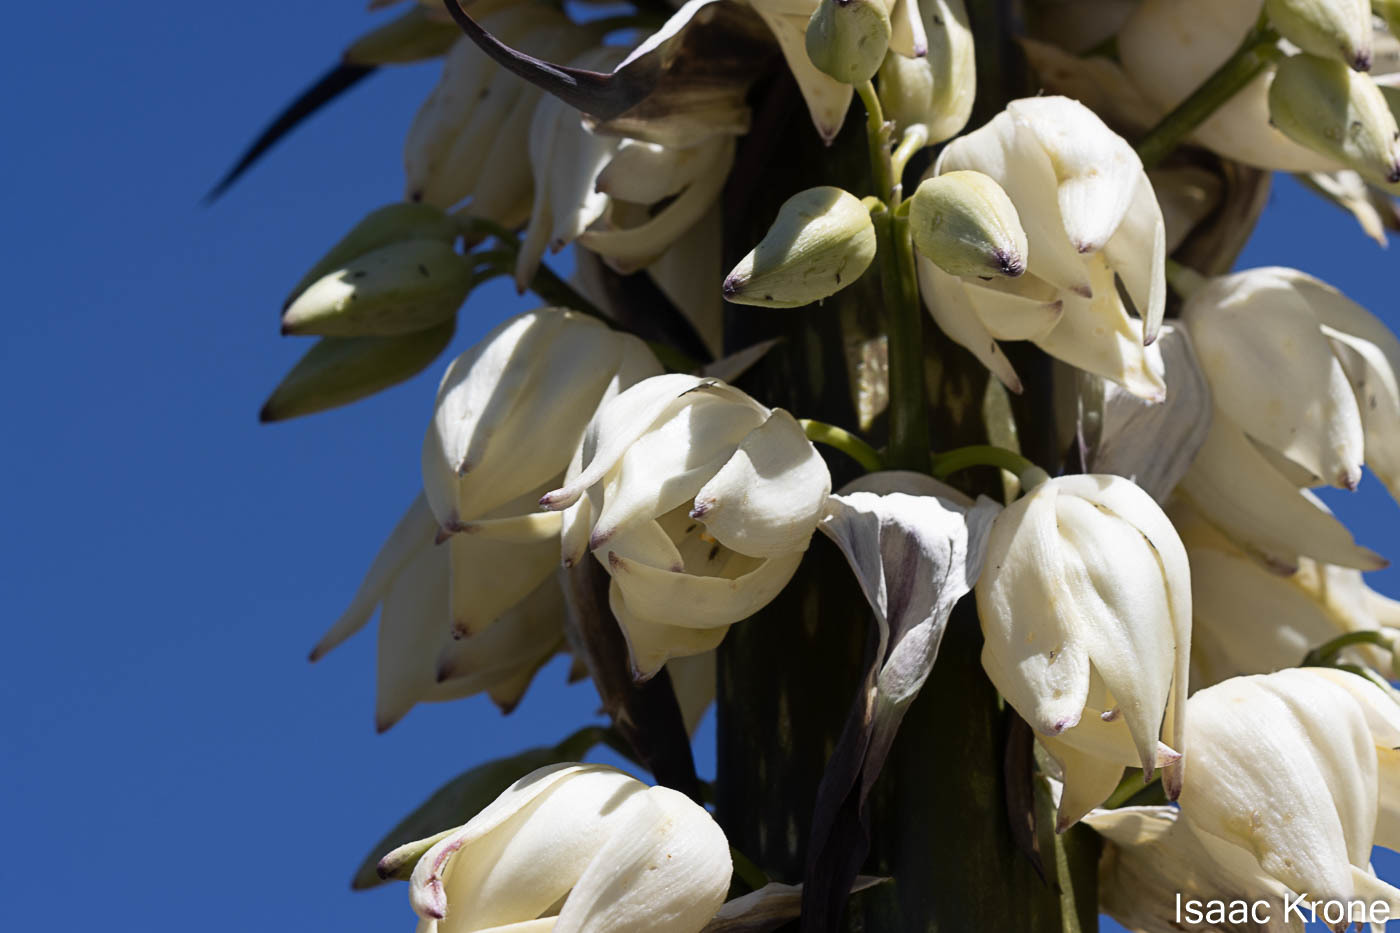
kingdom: Plantae
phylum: Tracheophyta
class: Liliopsida
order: Asparagales
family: Asparagaceae
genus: Hesperoyucca
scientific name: Hesperoyucca whipplei
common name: Our lord's-candle
